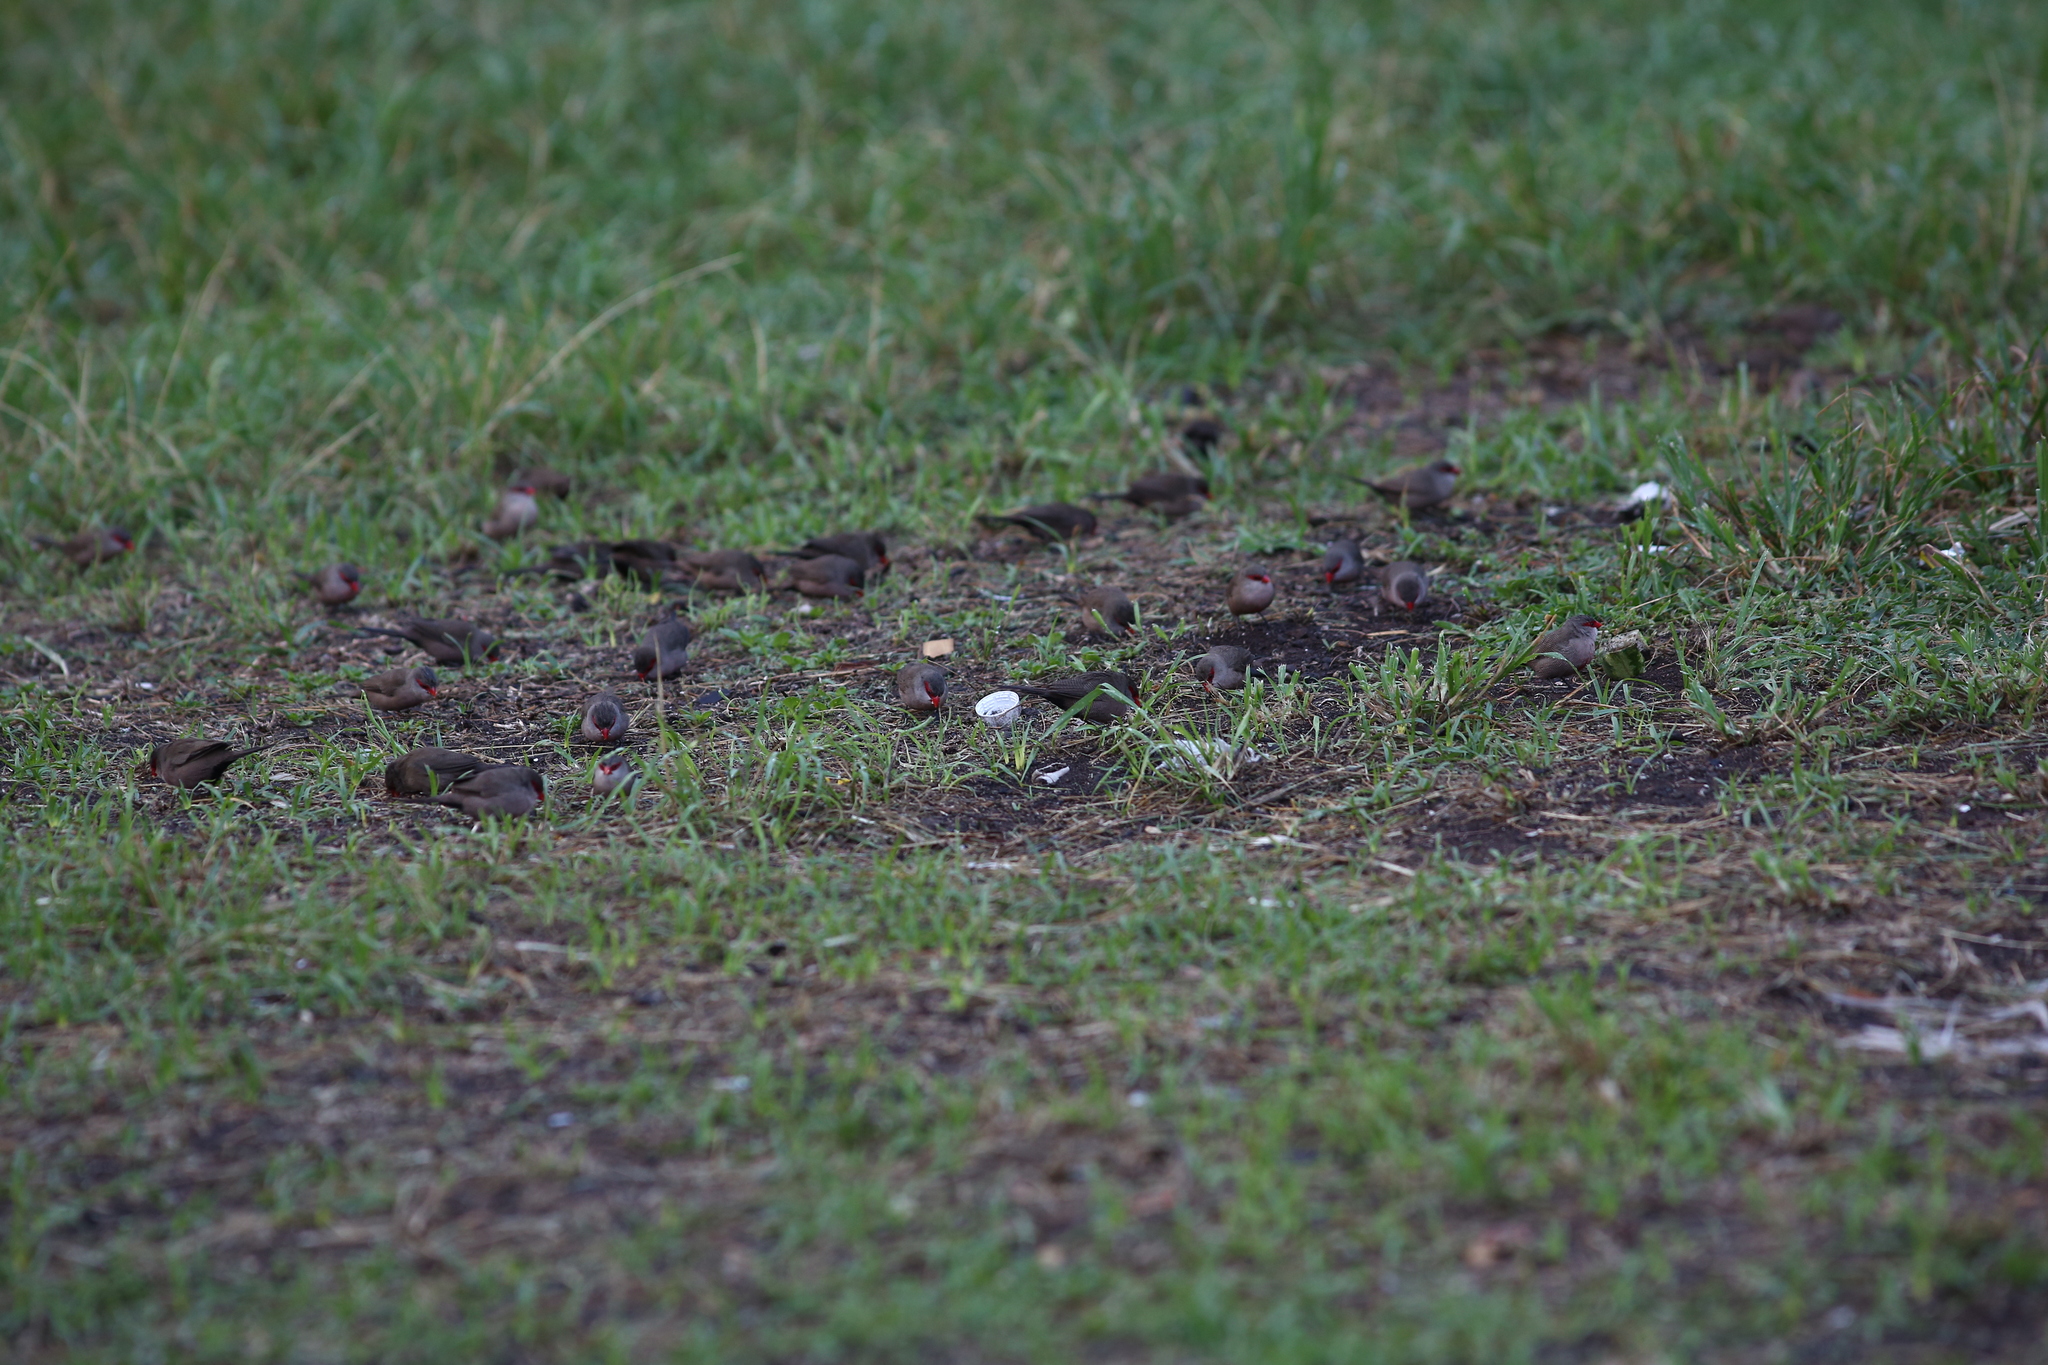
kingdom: Animalia
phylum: Chordata
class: Aves
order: Passeriformes
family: Estrildidae
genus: Estrilda
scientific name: Estrilda astrild
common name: Common waxbill
